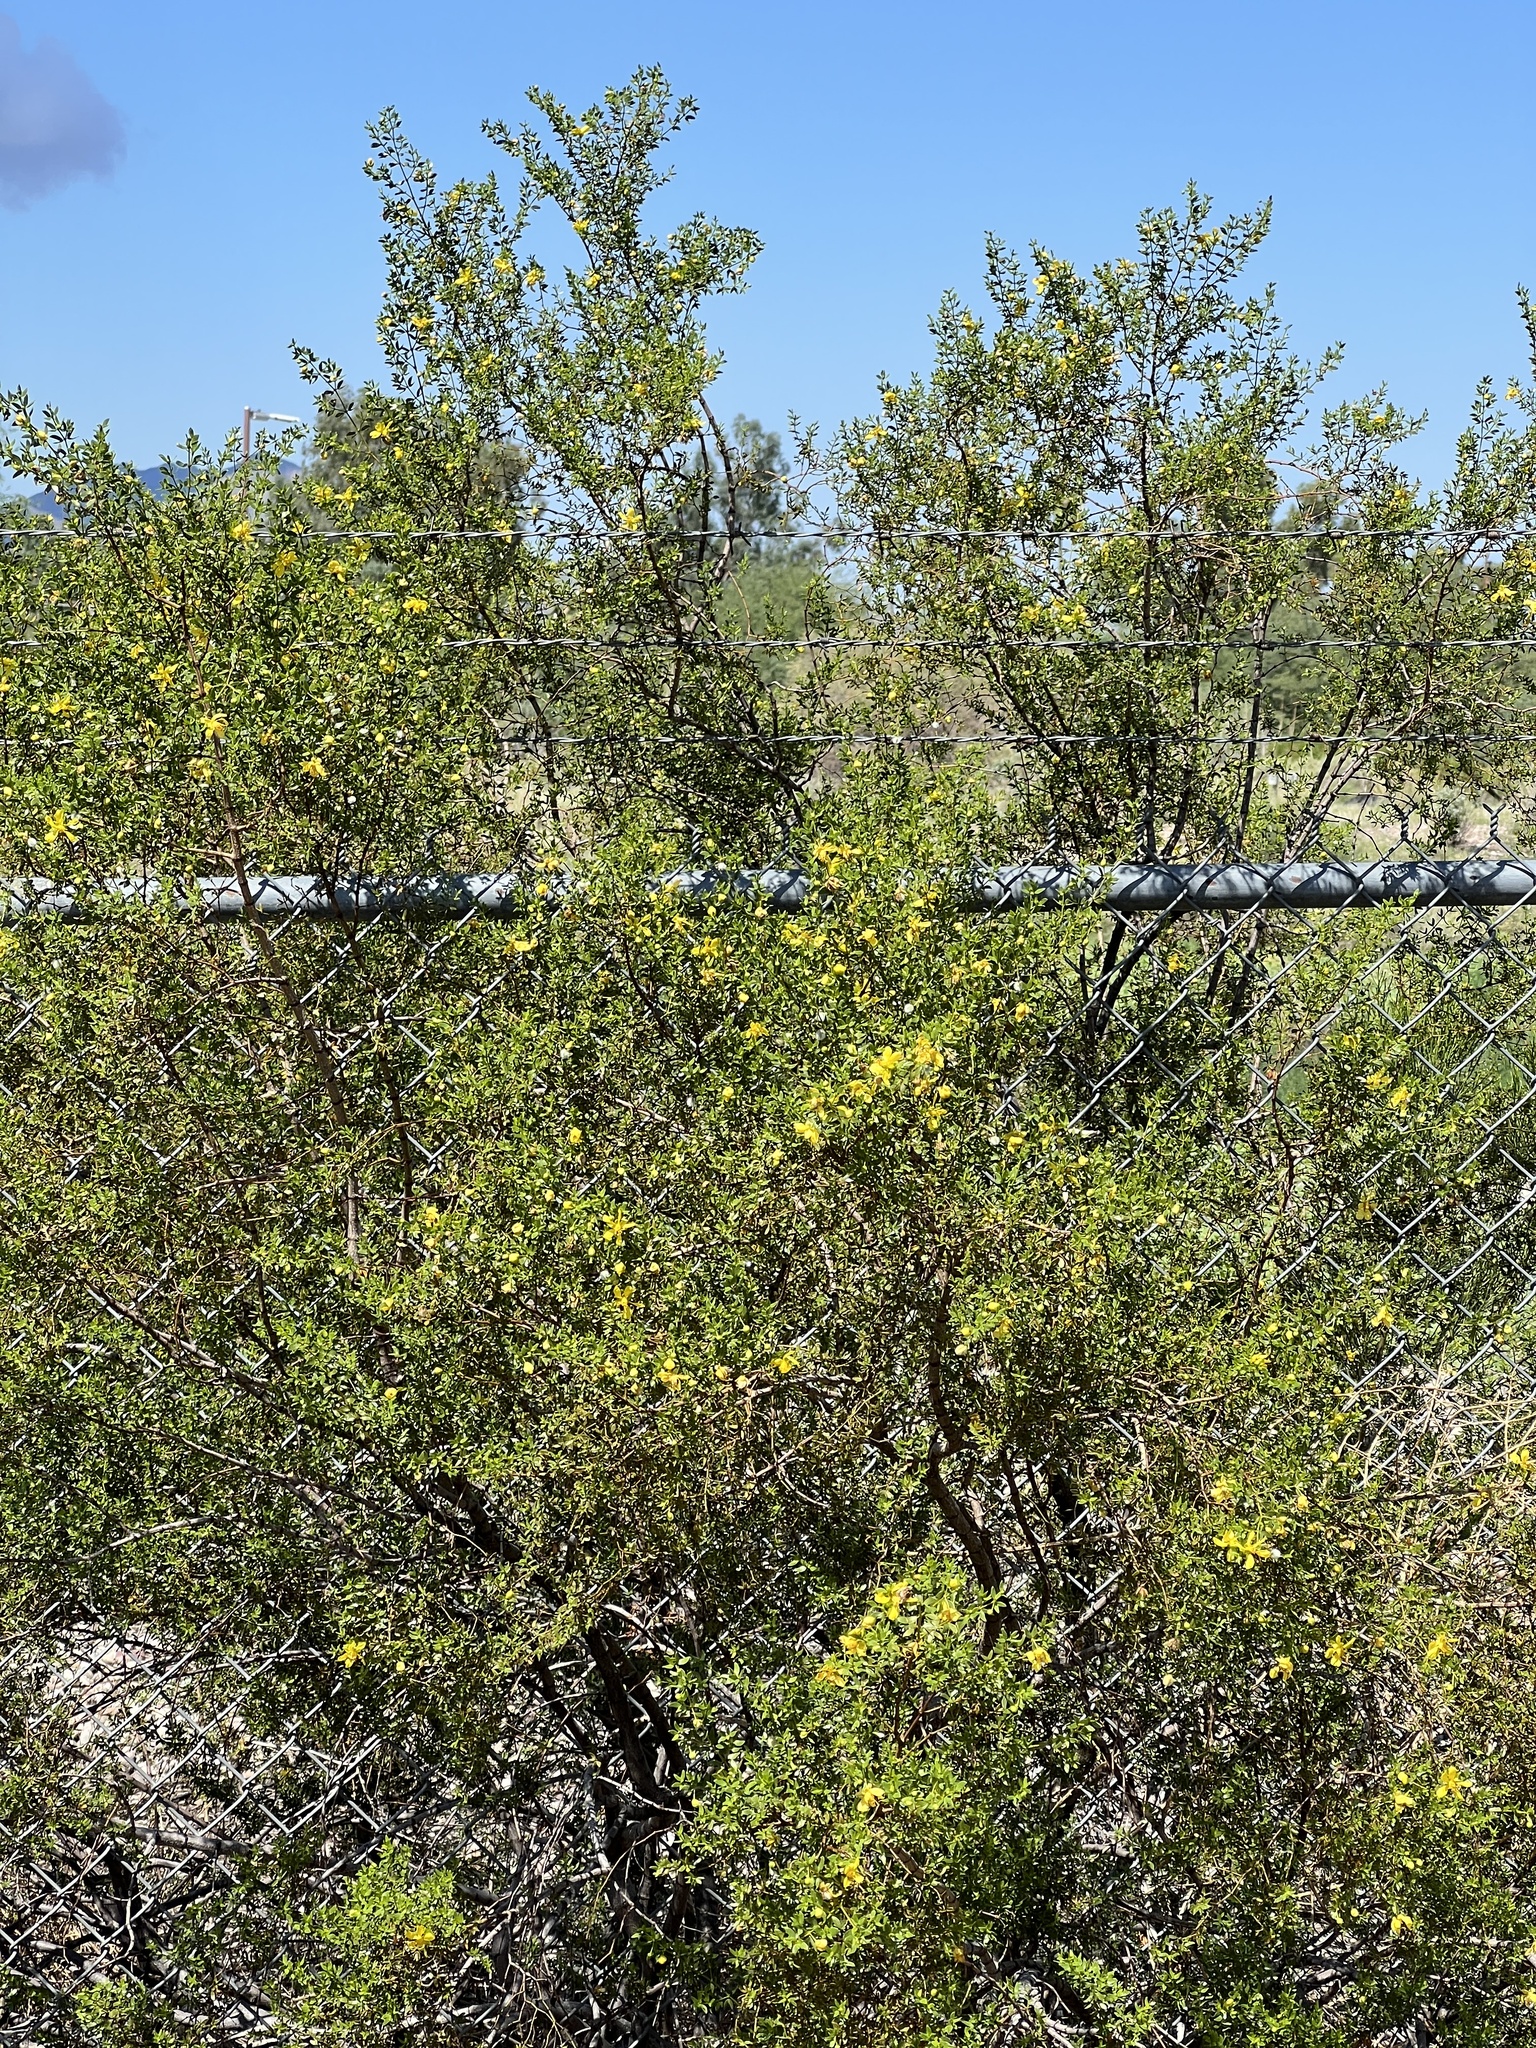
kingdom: Plantae
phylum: Tracheophyta
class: Magnoliopsida
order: Zygophyllales
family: Zygophyllaceae
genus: Larrea
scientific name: Larrea tridentata
